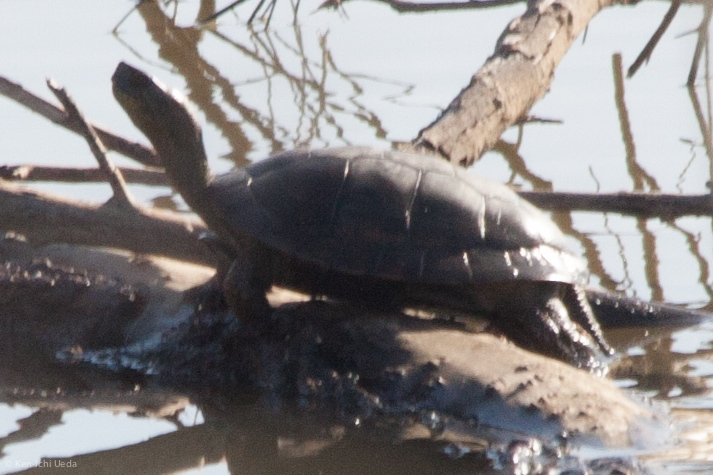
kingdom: Animalia
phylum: Chordata
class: Testudines
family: Emydidae
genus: Actinemys
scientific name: Actinemys marmorata
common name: Western pond turtle
